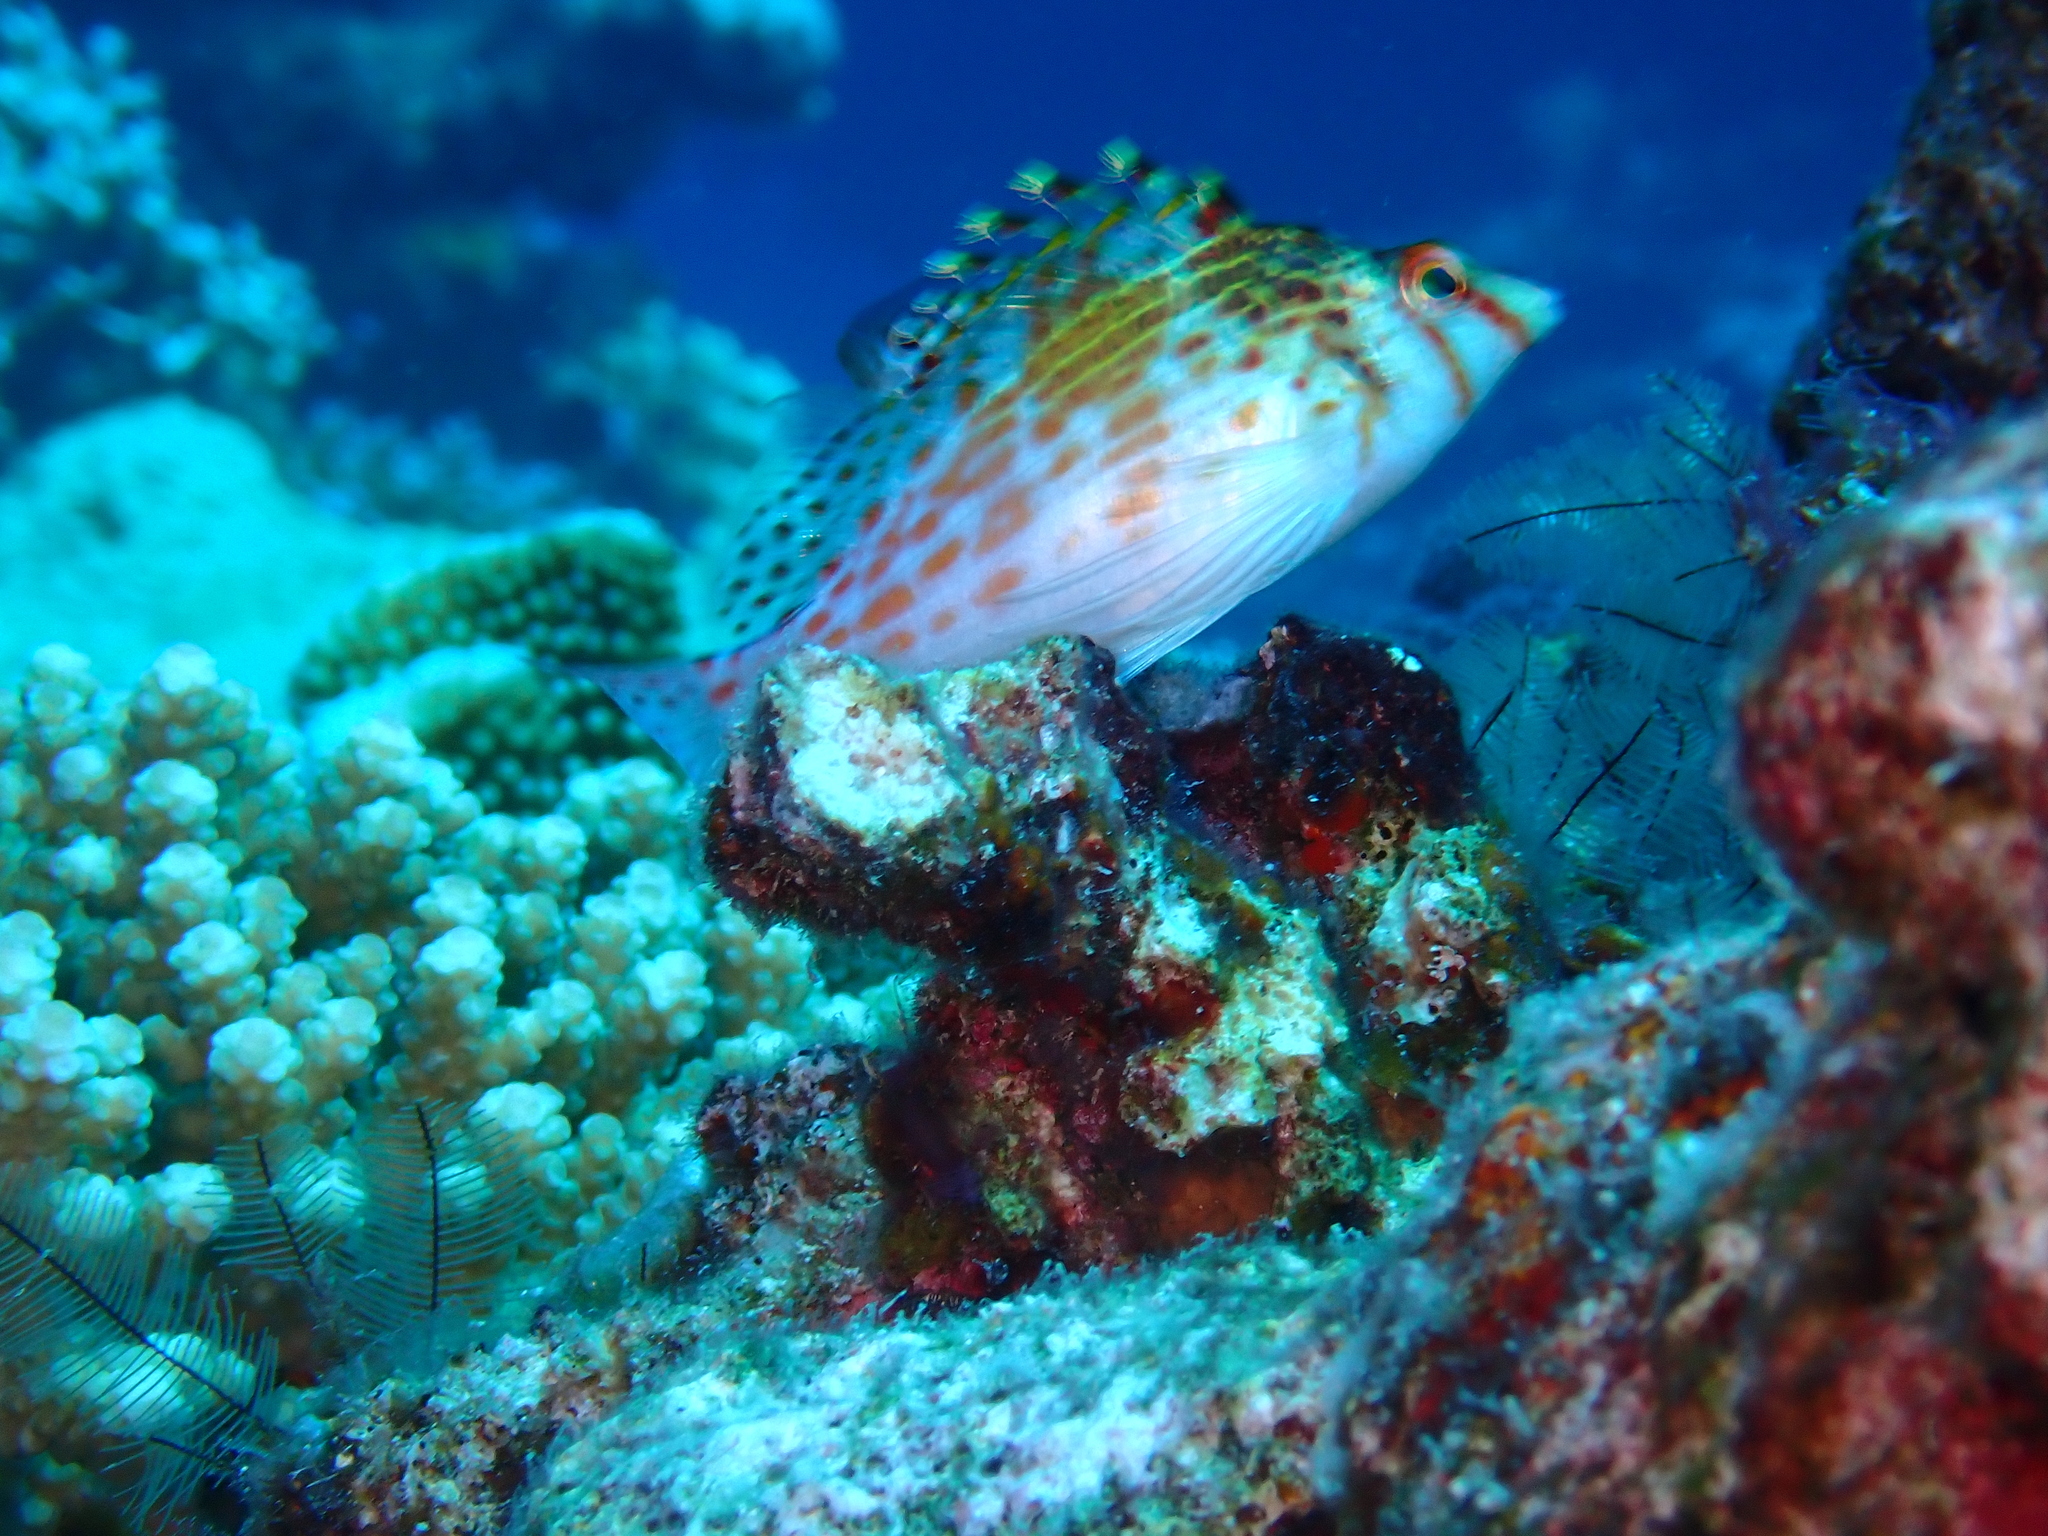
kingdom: Animalia
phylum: Chordata
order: Perciformes
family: Cirrhitidae
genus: Cirrhitichthys
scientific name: Cirrhitichthys falco
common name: Coral hawkfish
